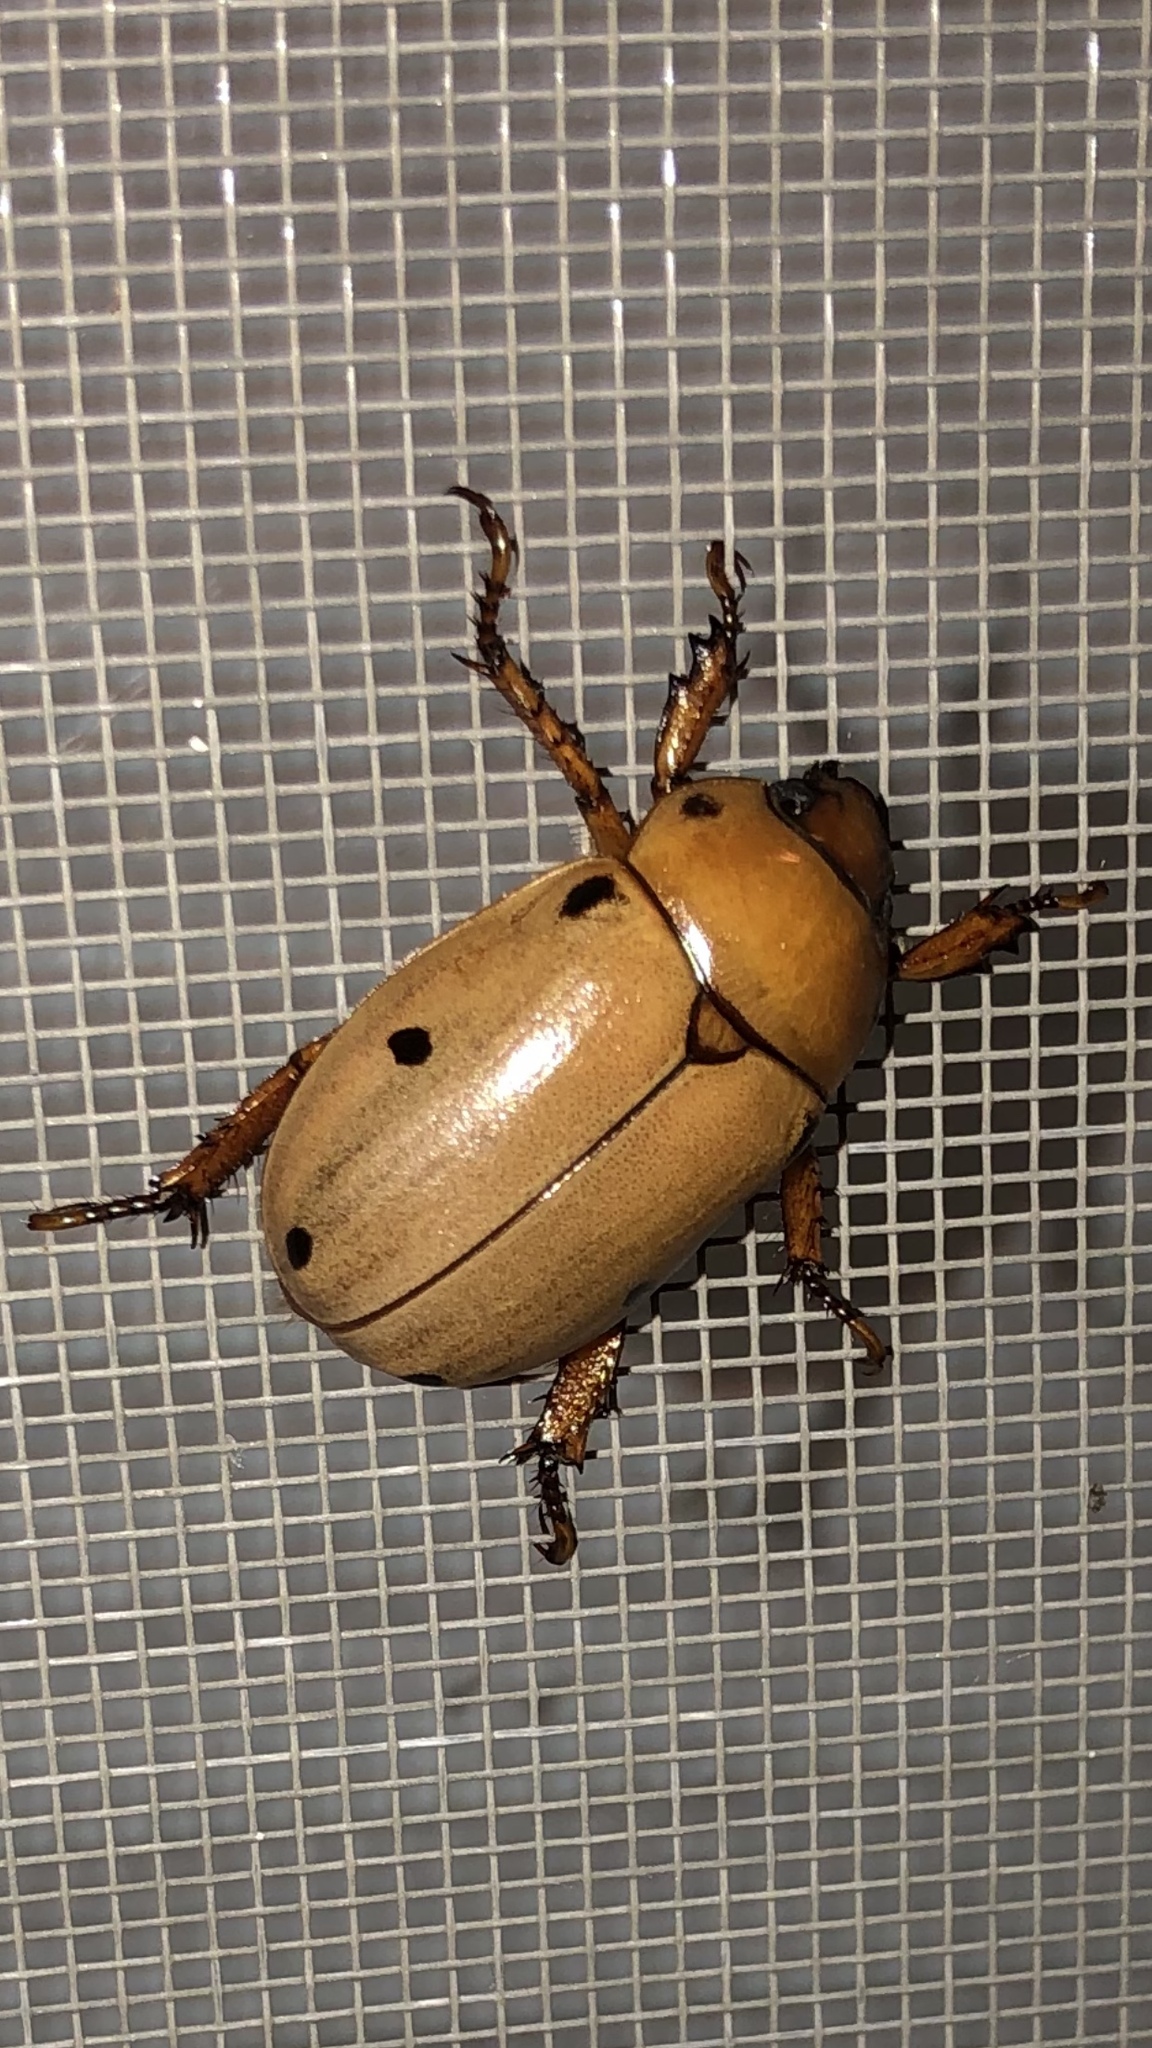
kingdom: Animalia
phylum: Arthropoda
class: Insecta
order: Coleoptera
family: Scarabaeidae
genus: Pelidnota
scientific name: Pelidnota punctata
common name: Grapevine beetle
